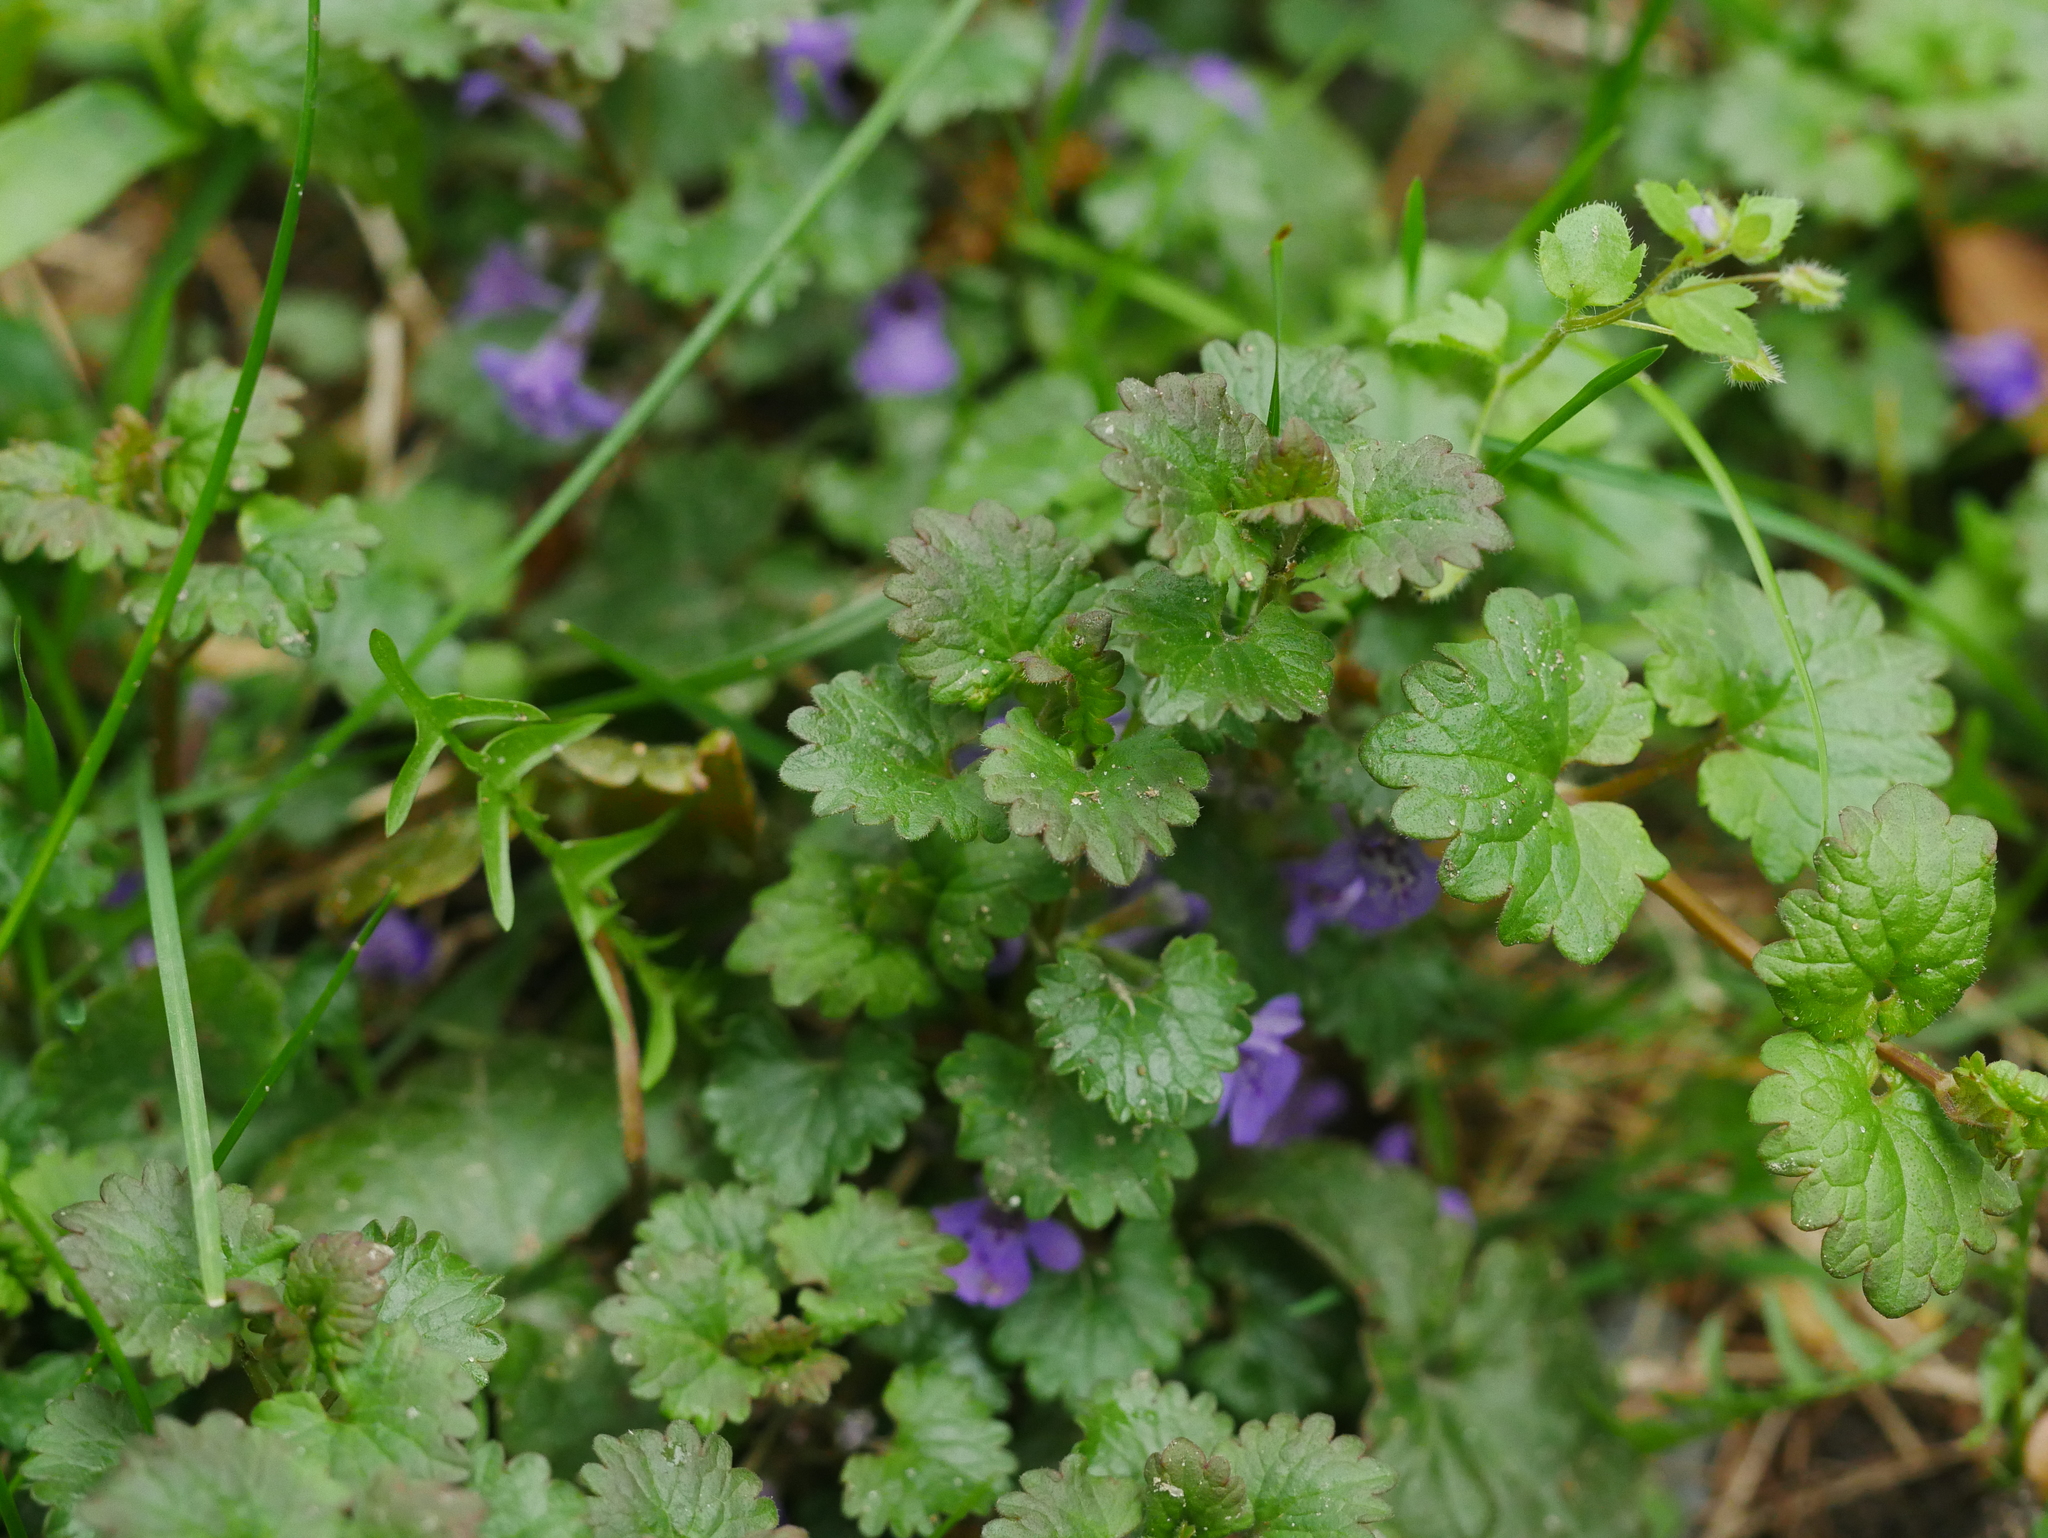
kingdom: Plantae
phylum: Tracheophyta
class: Magnoliopsida
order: Lamiales
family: Lamiaceae
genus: Glechoma
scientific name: Glechoma hederacea
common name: Ground ivy
